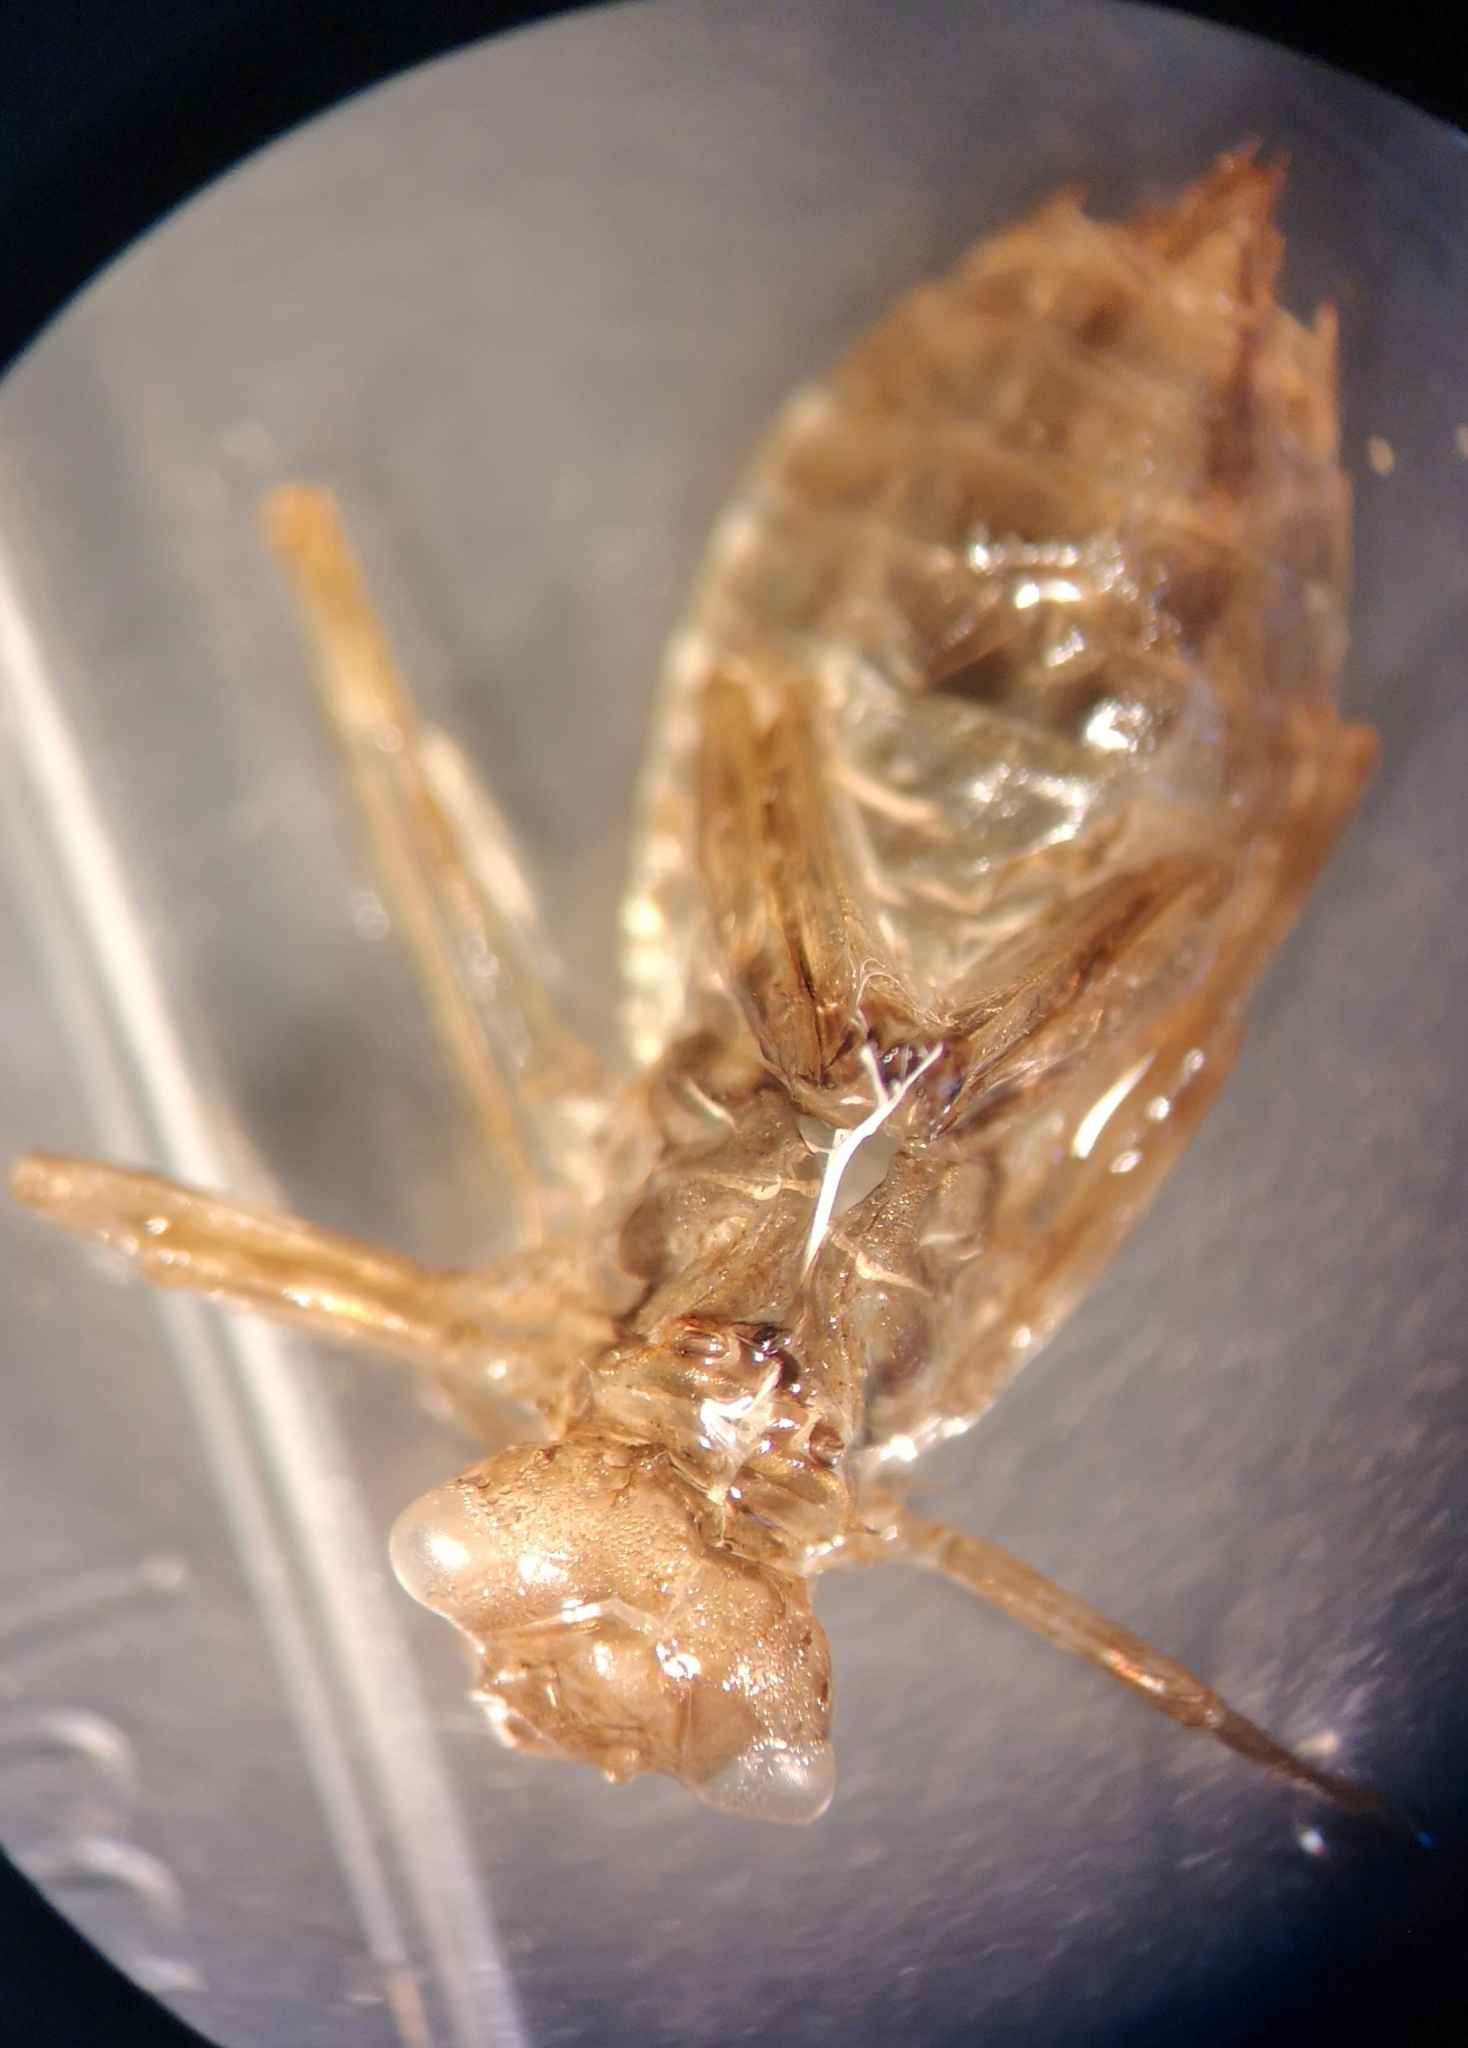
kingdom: Animalia
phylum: Arthropoda
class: Insecta
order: Odonata
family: Libellulidae
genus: Sympetrum
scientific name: Sympetrum danae
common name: Black darter
